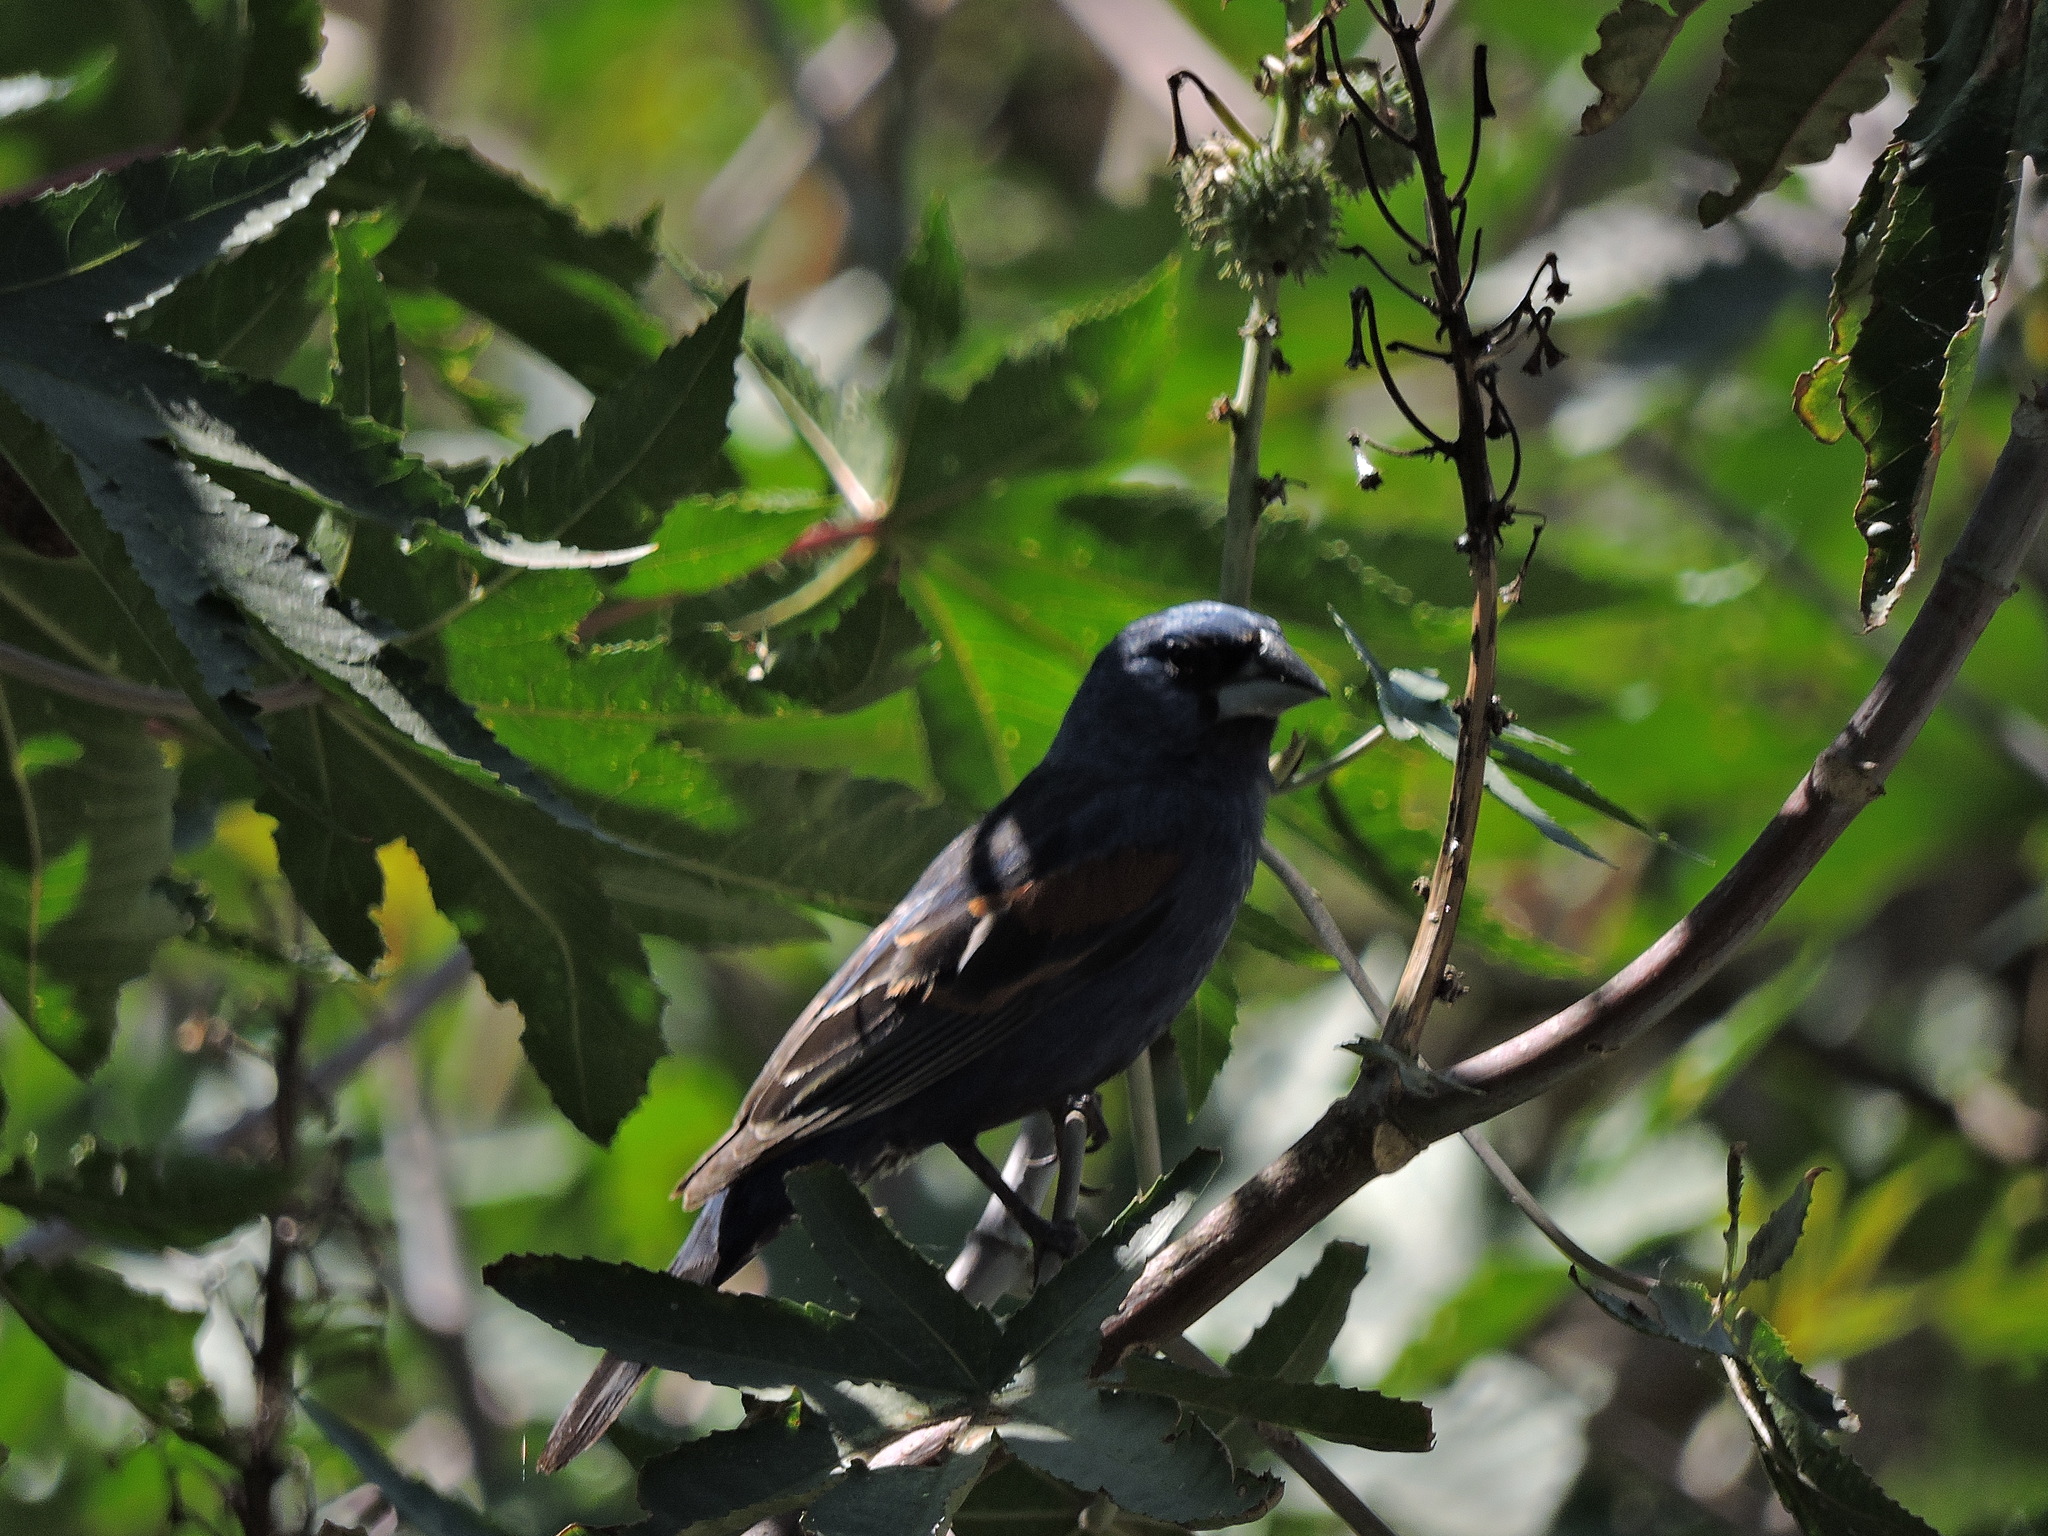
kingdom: Animalia
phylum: Chordata
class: Aves
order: Passeriformes
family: Cardinalidae
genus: Passerina
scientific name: Passerina caerulea
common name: Blue grosbeak
